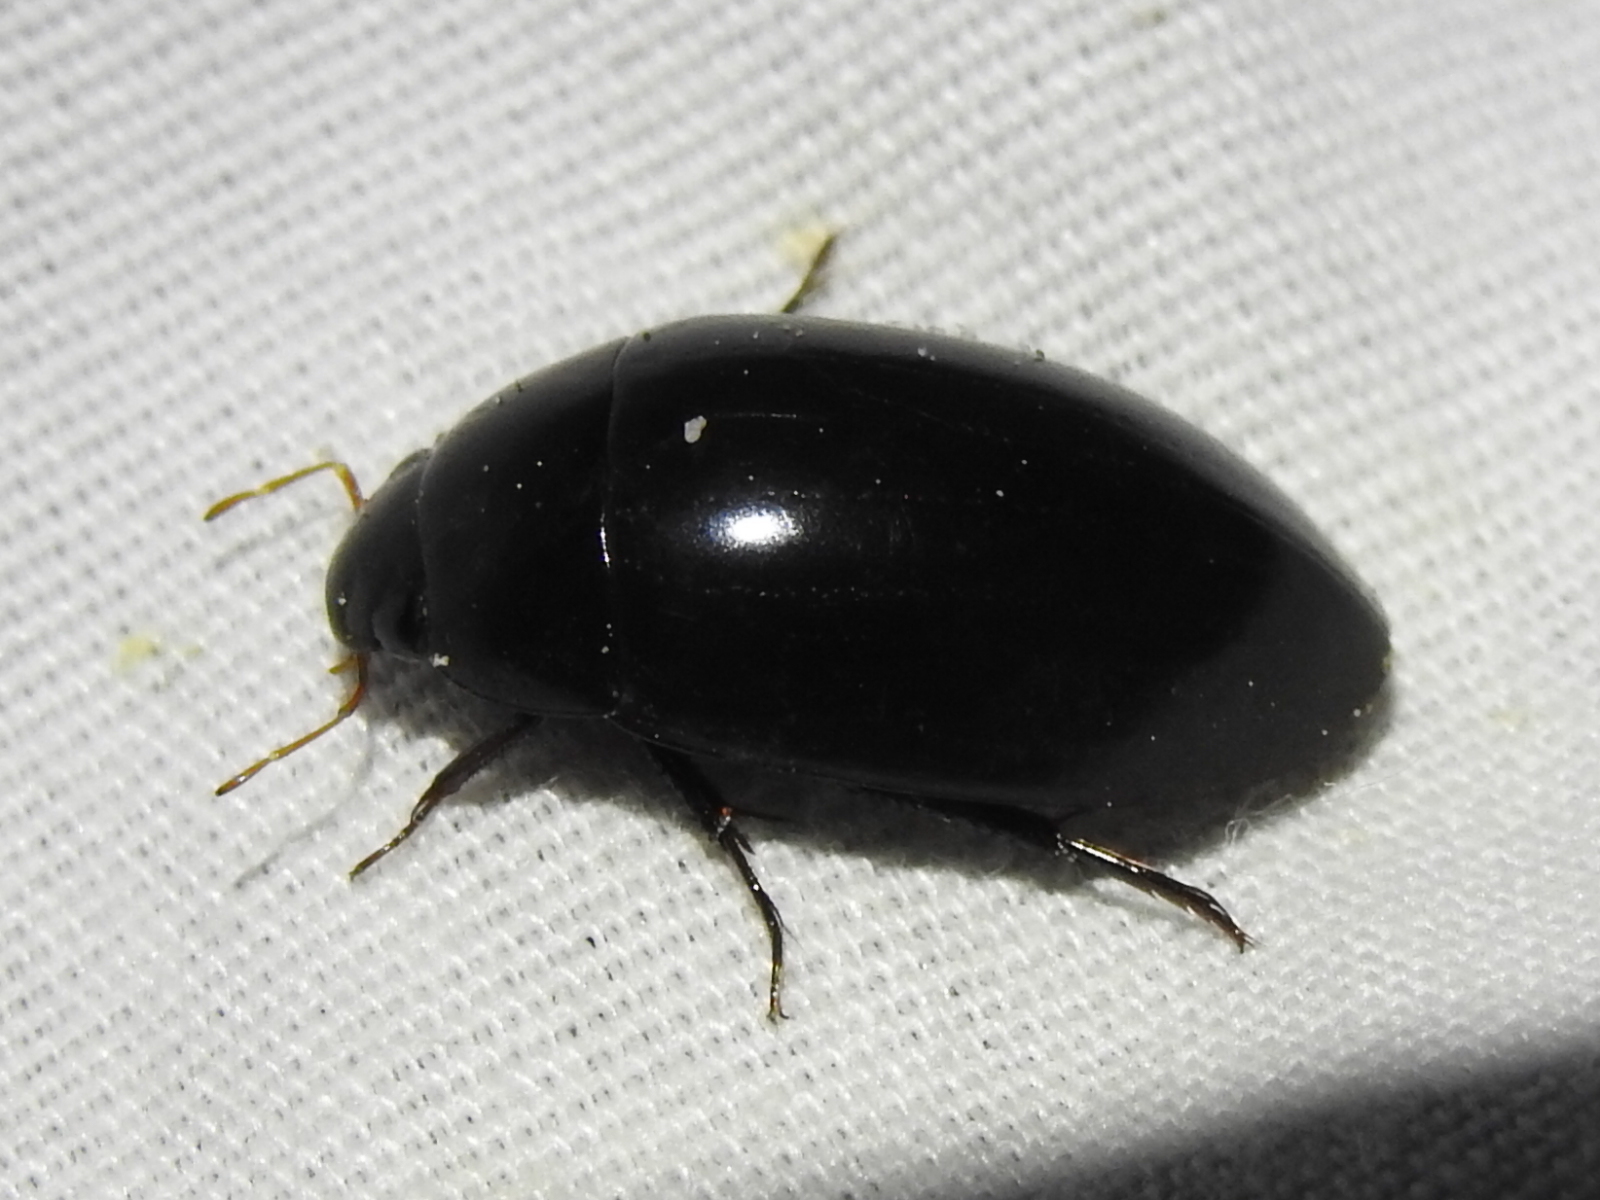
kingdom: Animalia
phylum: Arthropoda
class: Insecta
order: Coleoptera
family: Hydrophilidae
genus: Hydrochara
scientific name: Hydrochara soror
